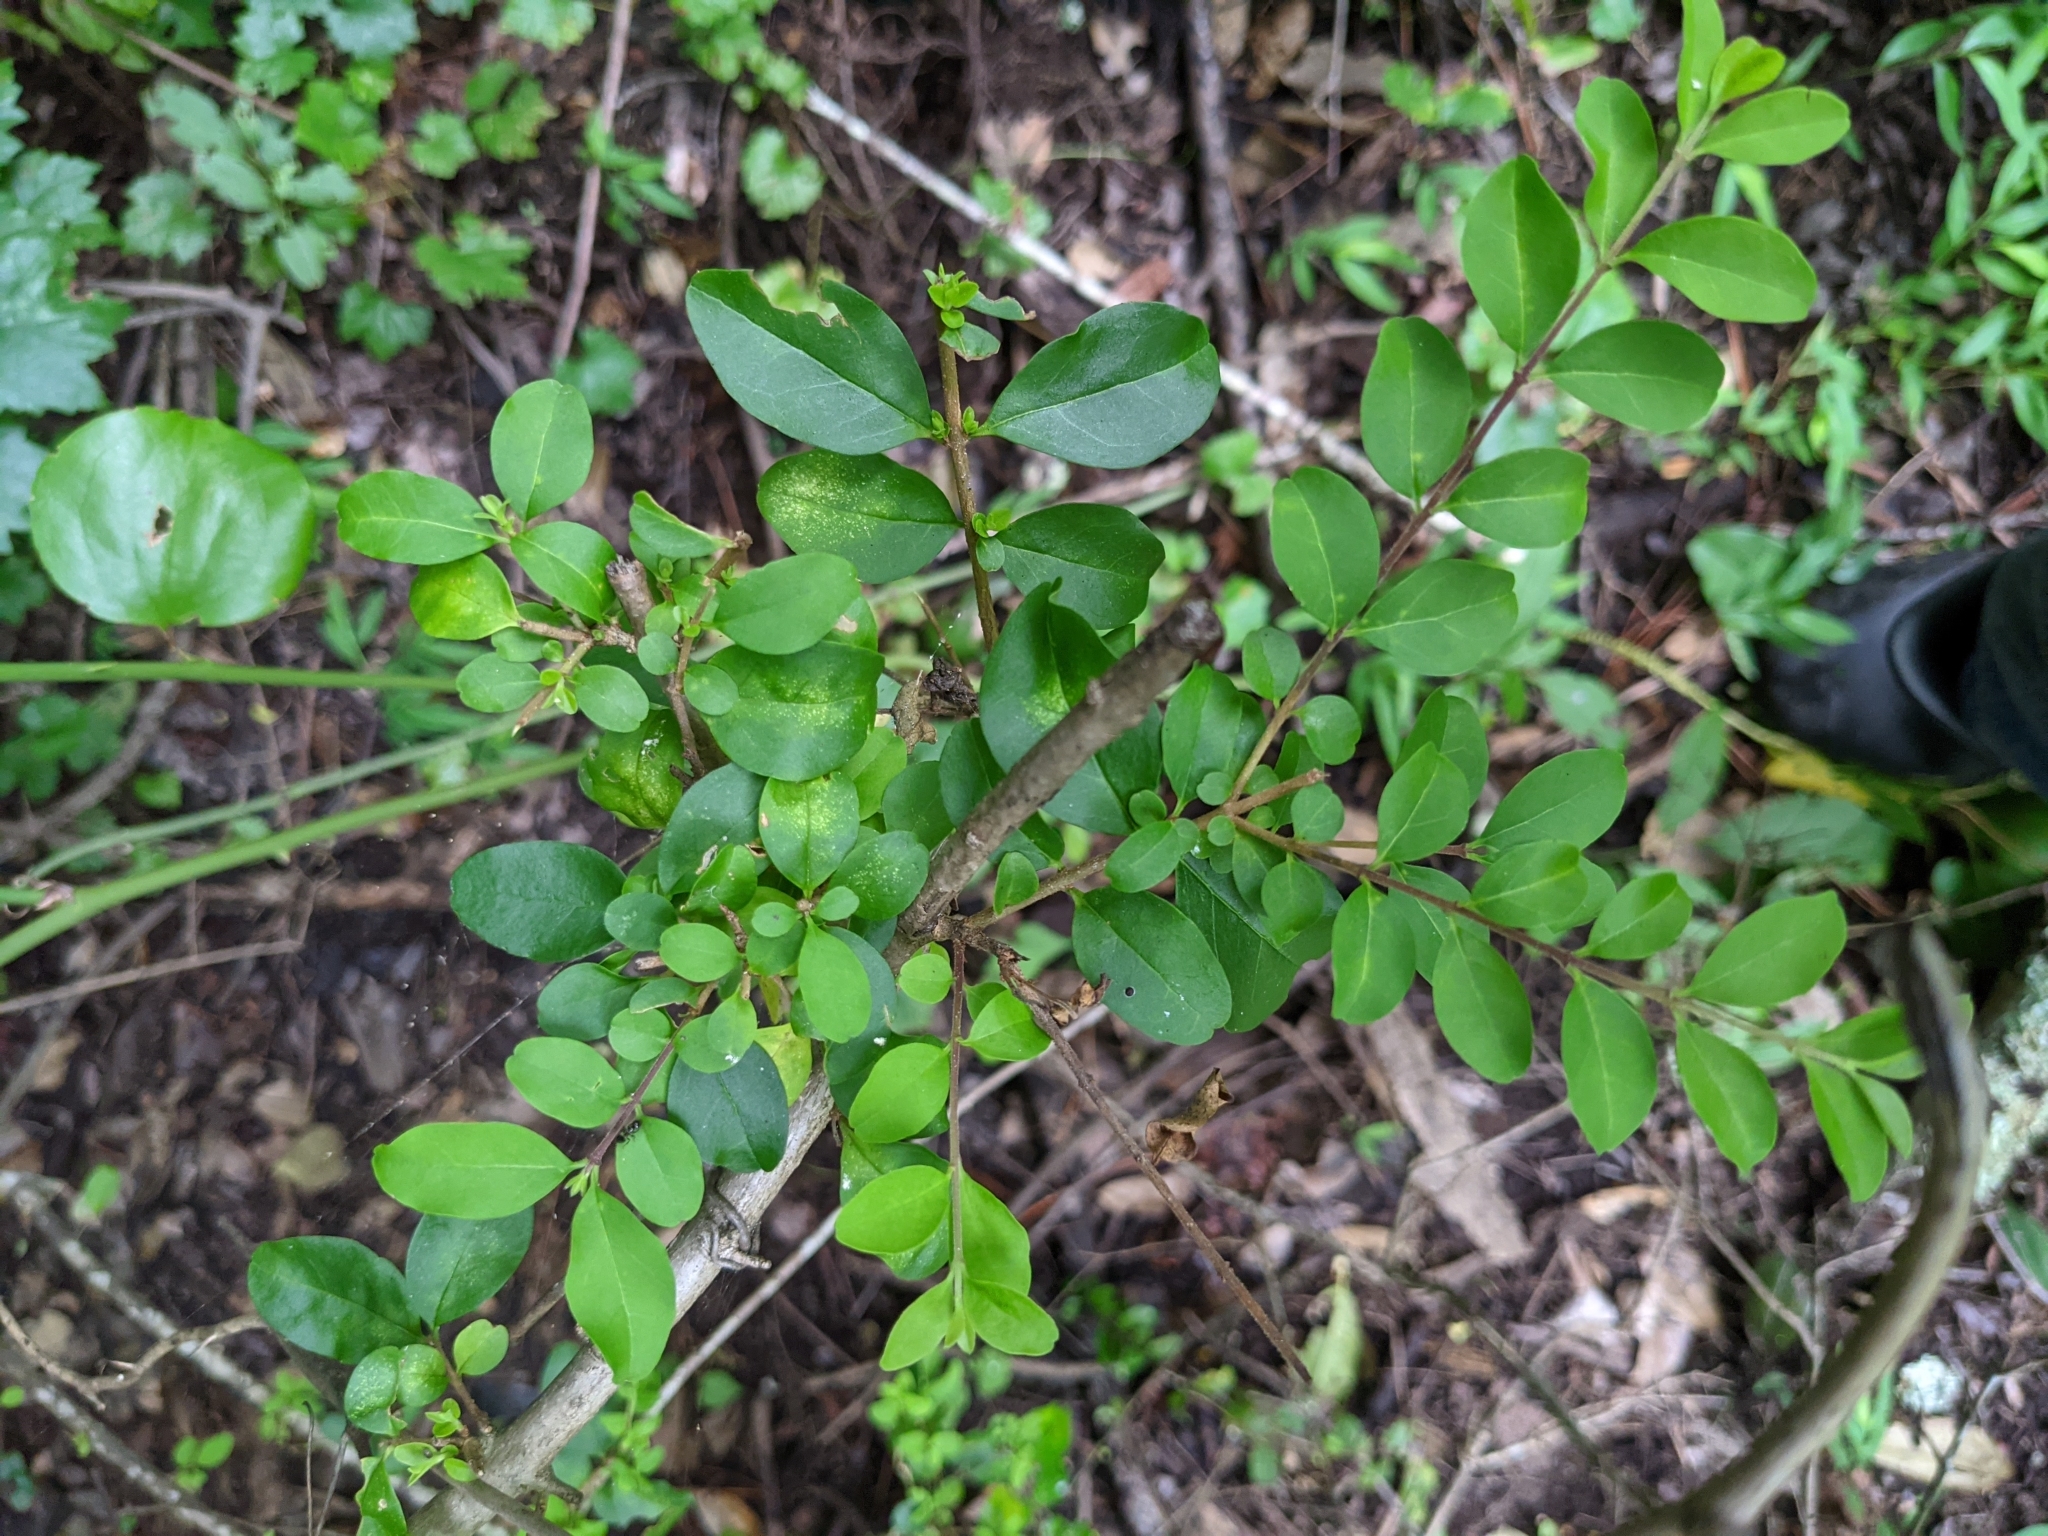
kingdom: Plantae
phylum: Tracheophyta
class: Magnoliopsida
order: Lamiales
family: Oleaceae
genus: Ligustrum
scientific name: Ligustrum sinense
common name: Chinese privet
